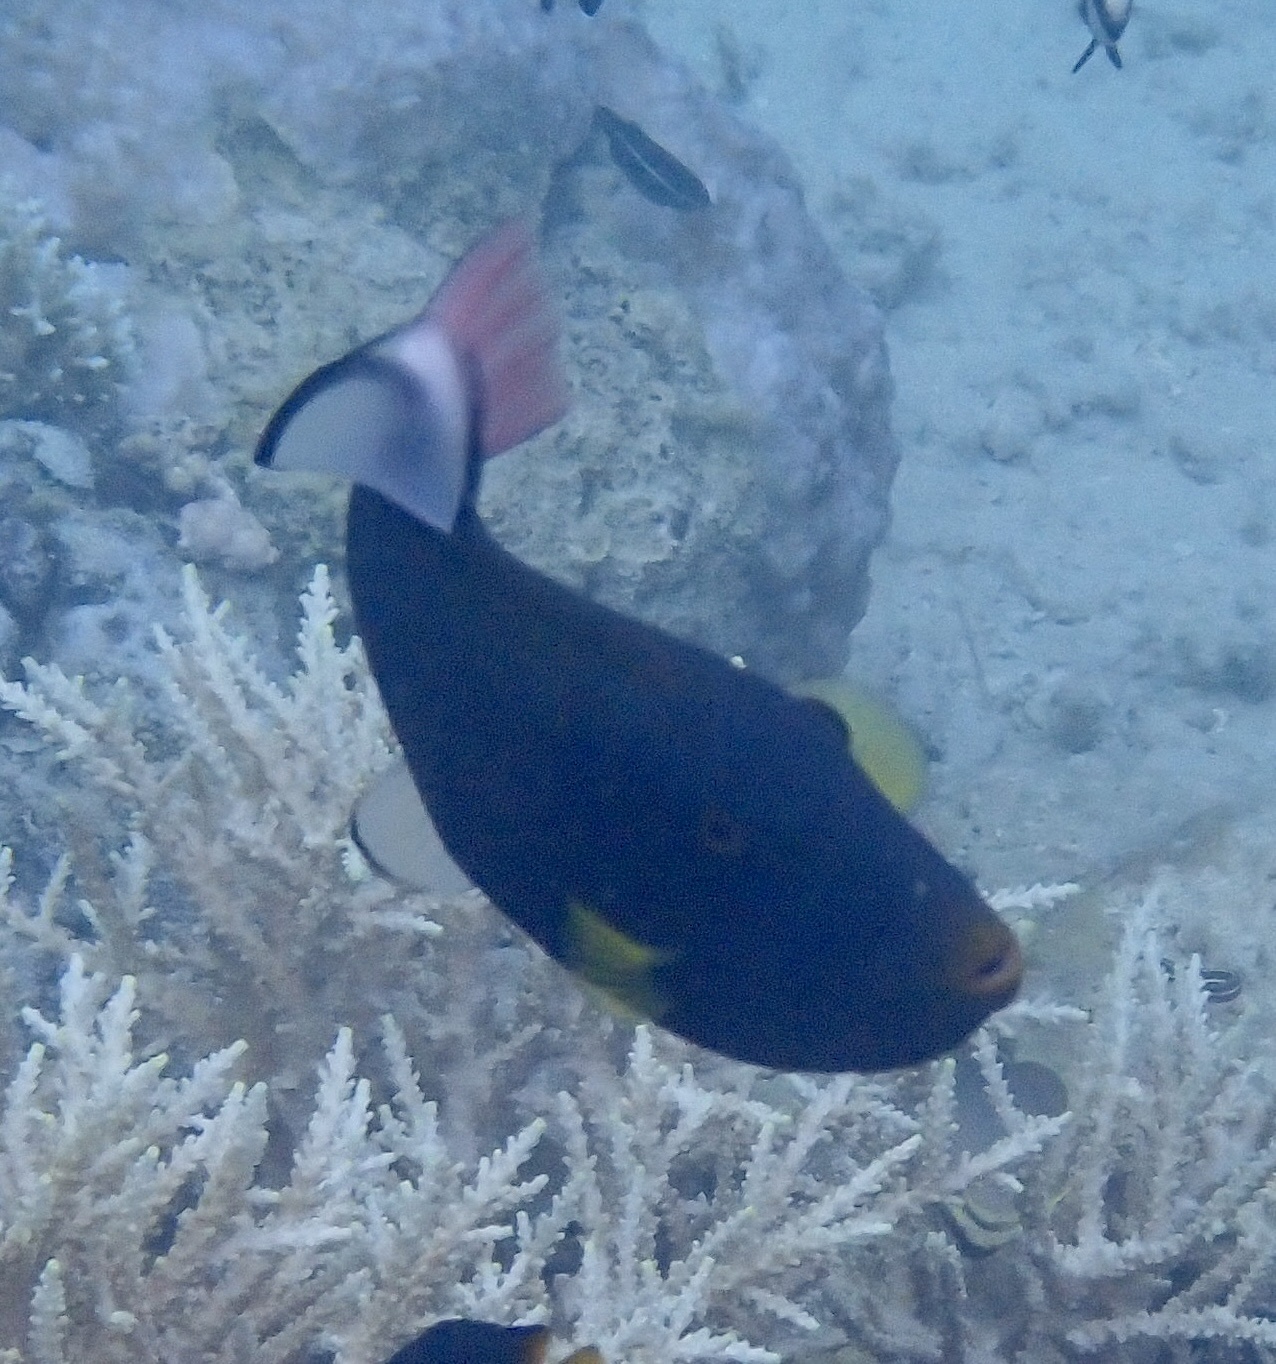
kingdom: Animalia
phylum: Chordata
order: Tetraodontiformes
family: Balistidae
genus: Melichthys
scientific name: Melichthys vidua
